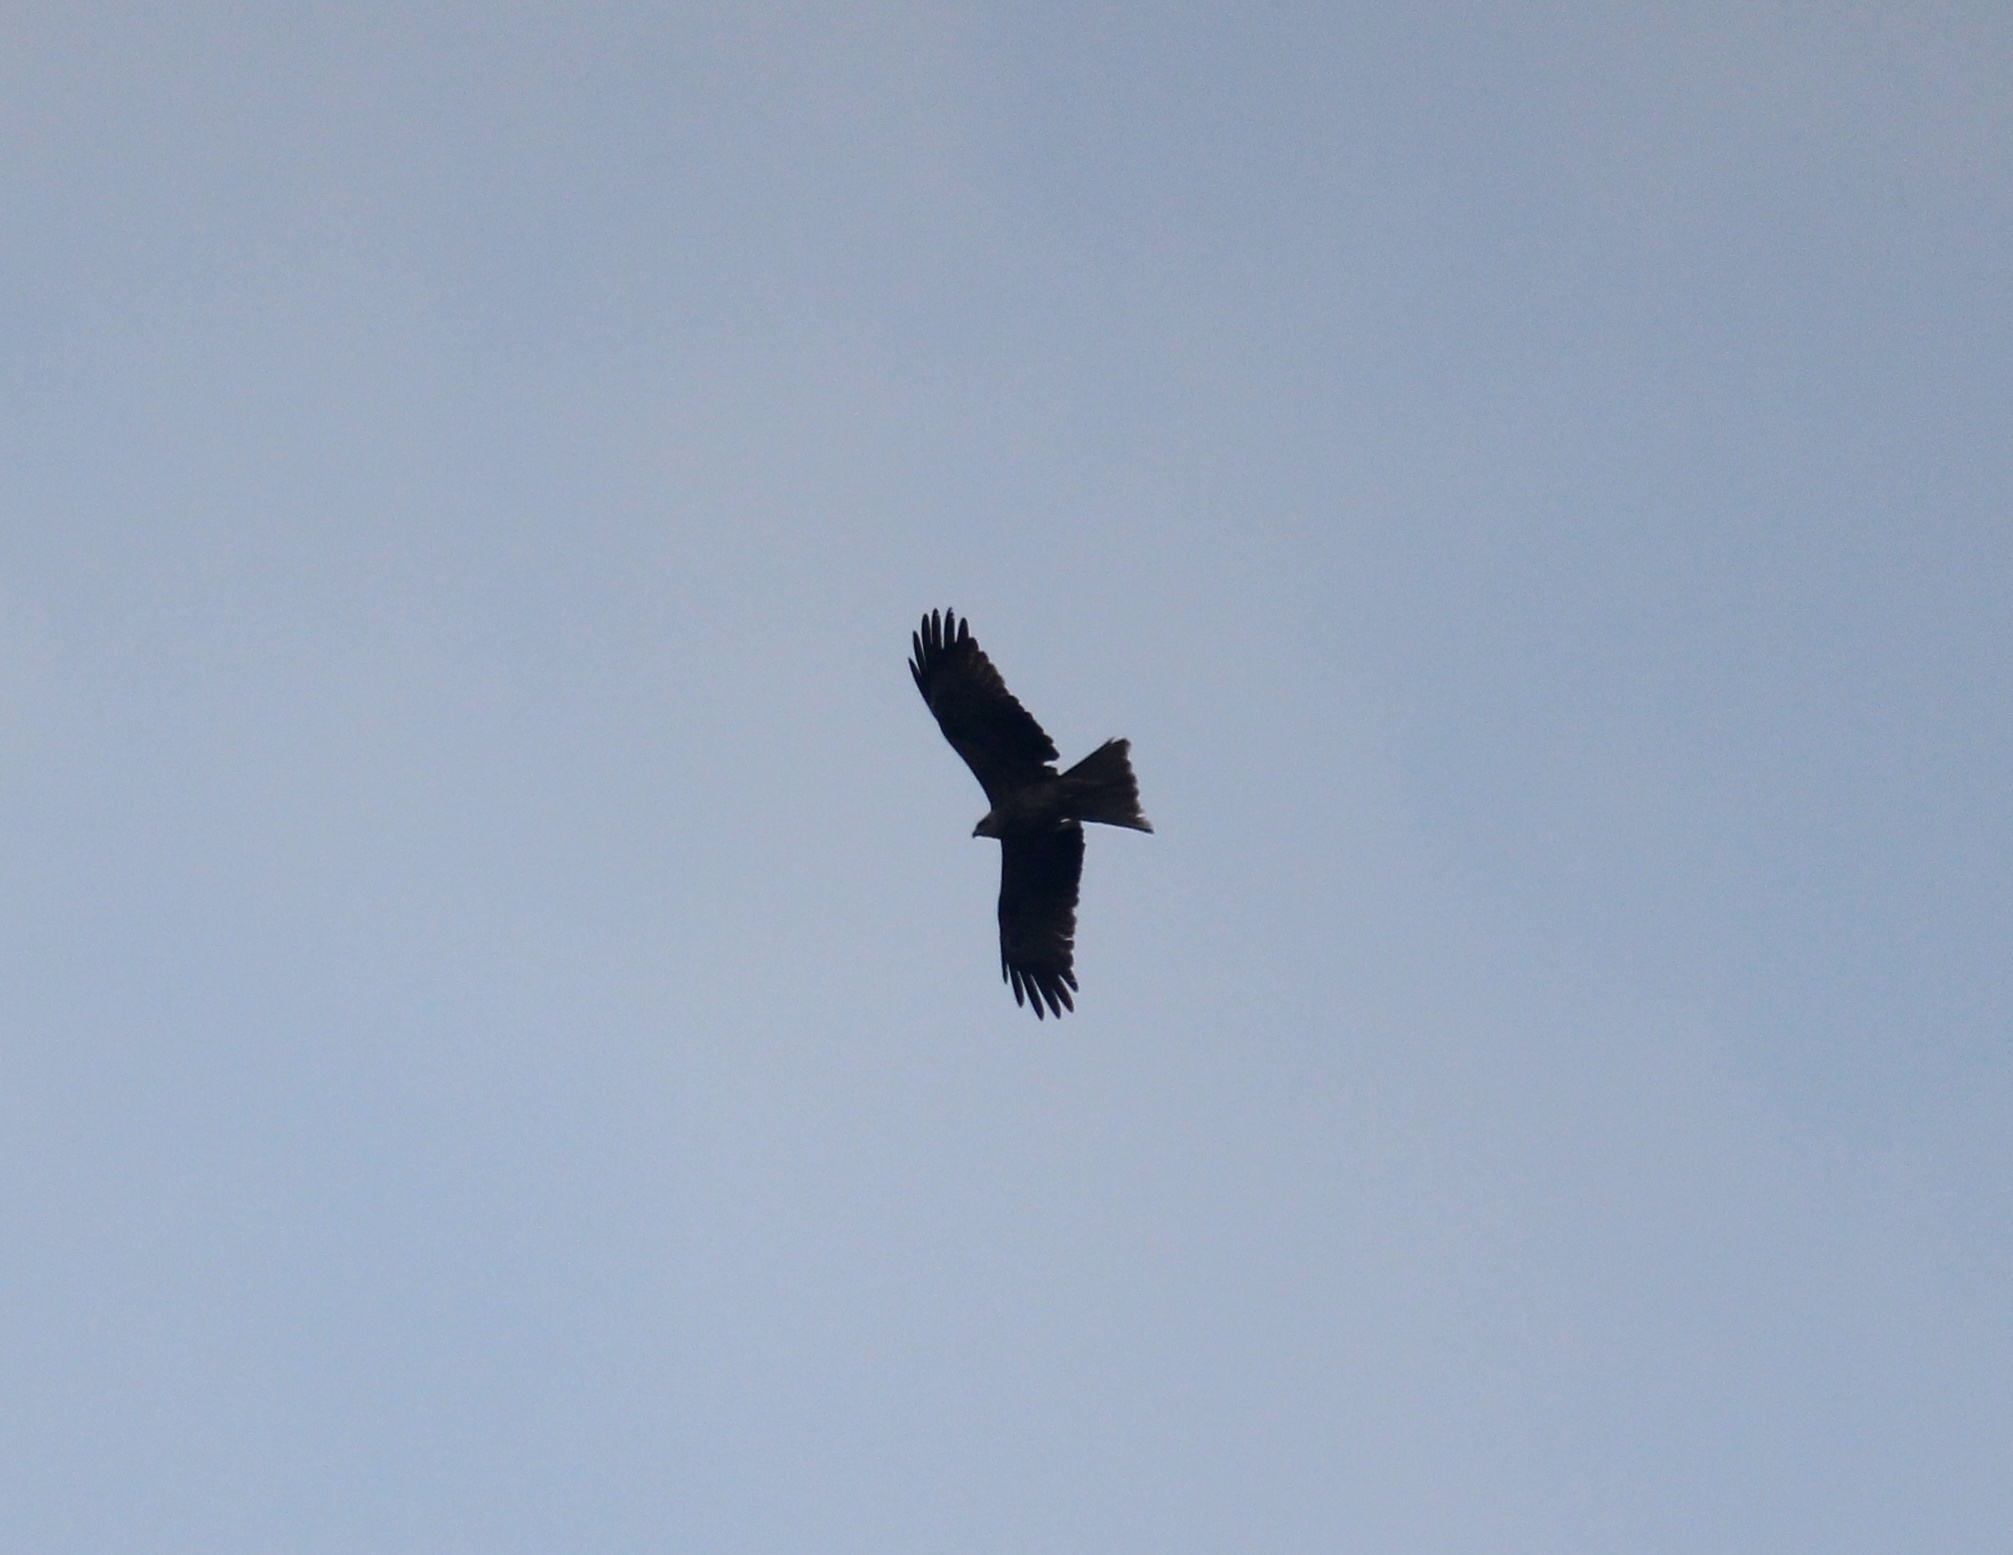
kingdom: Animalia
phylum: Chordata
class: Aves
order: Accipitriformes
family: Accipitridae
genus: Milvus
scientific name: Milvus migrans
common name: Black kite
